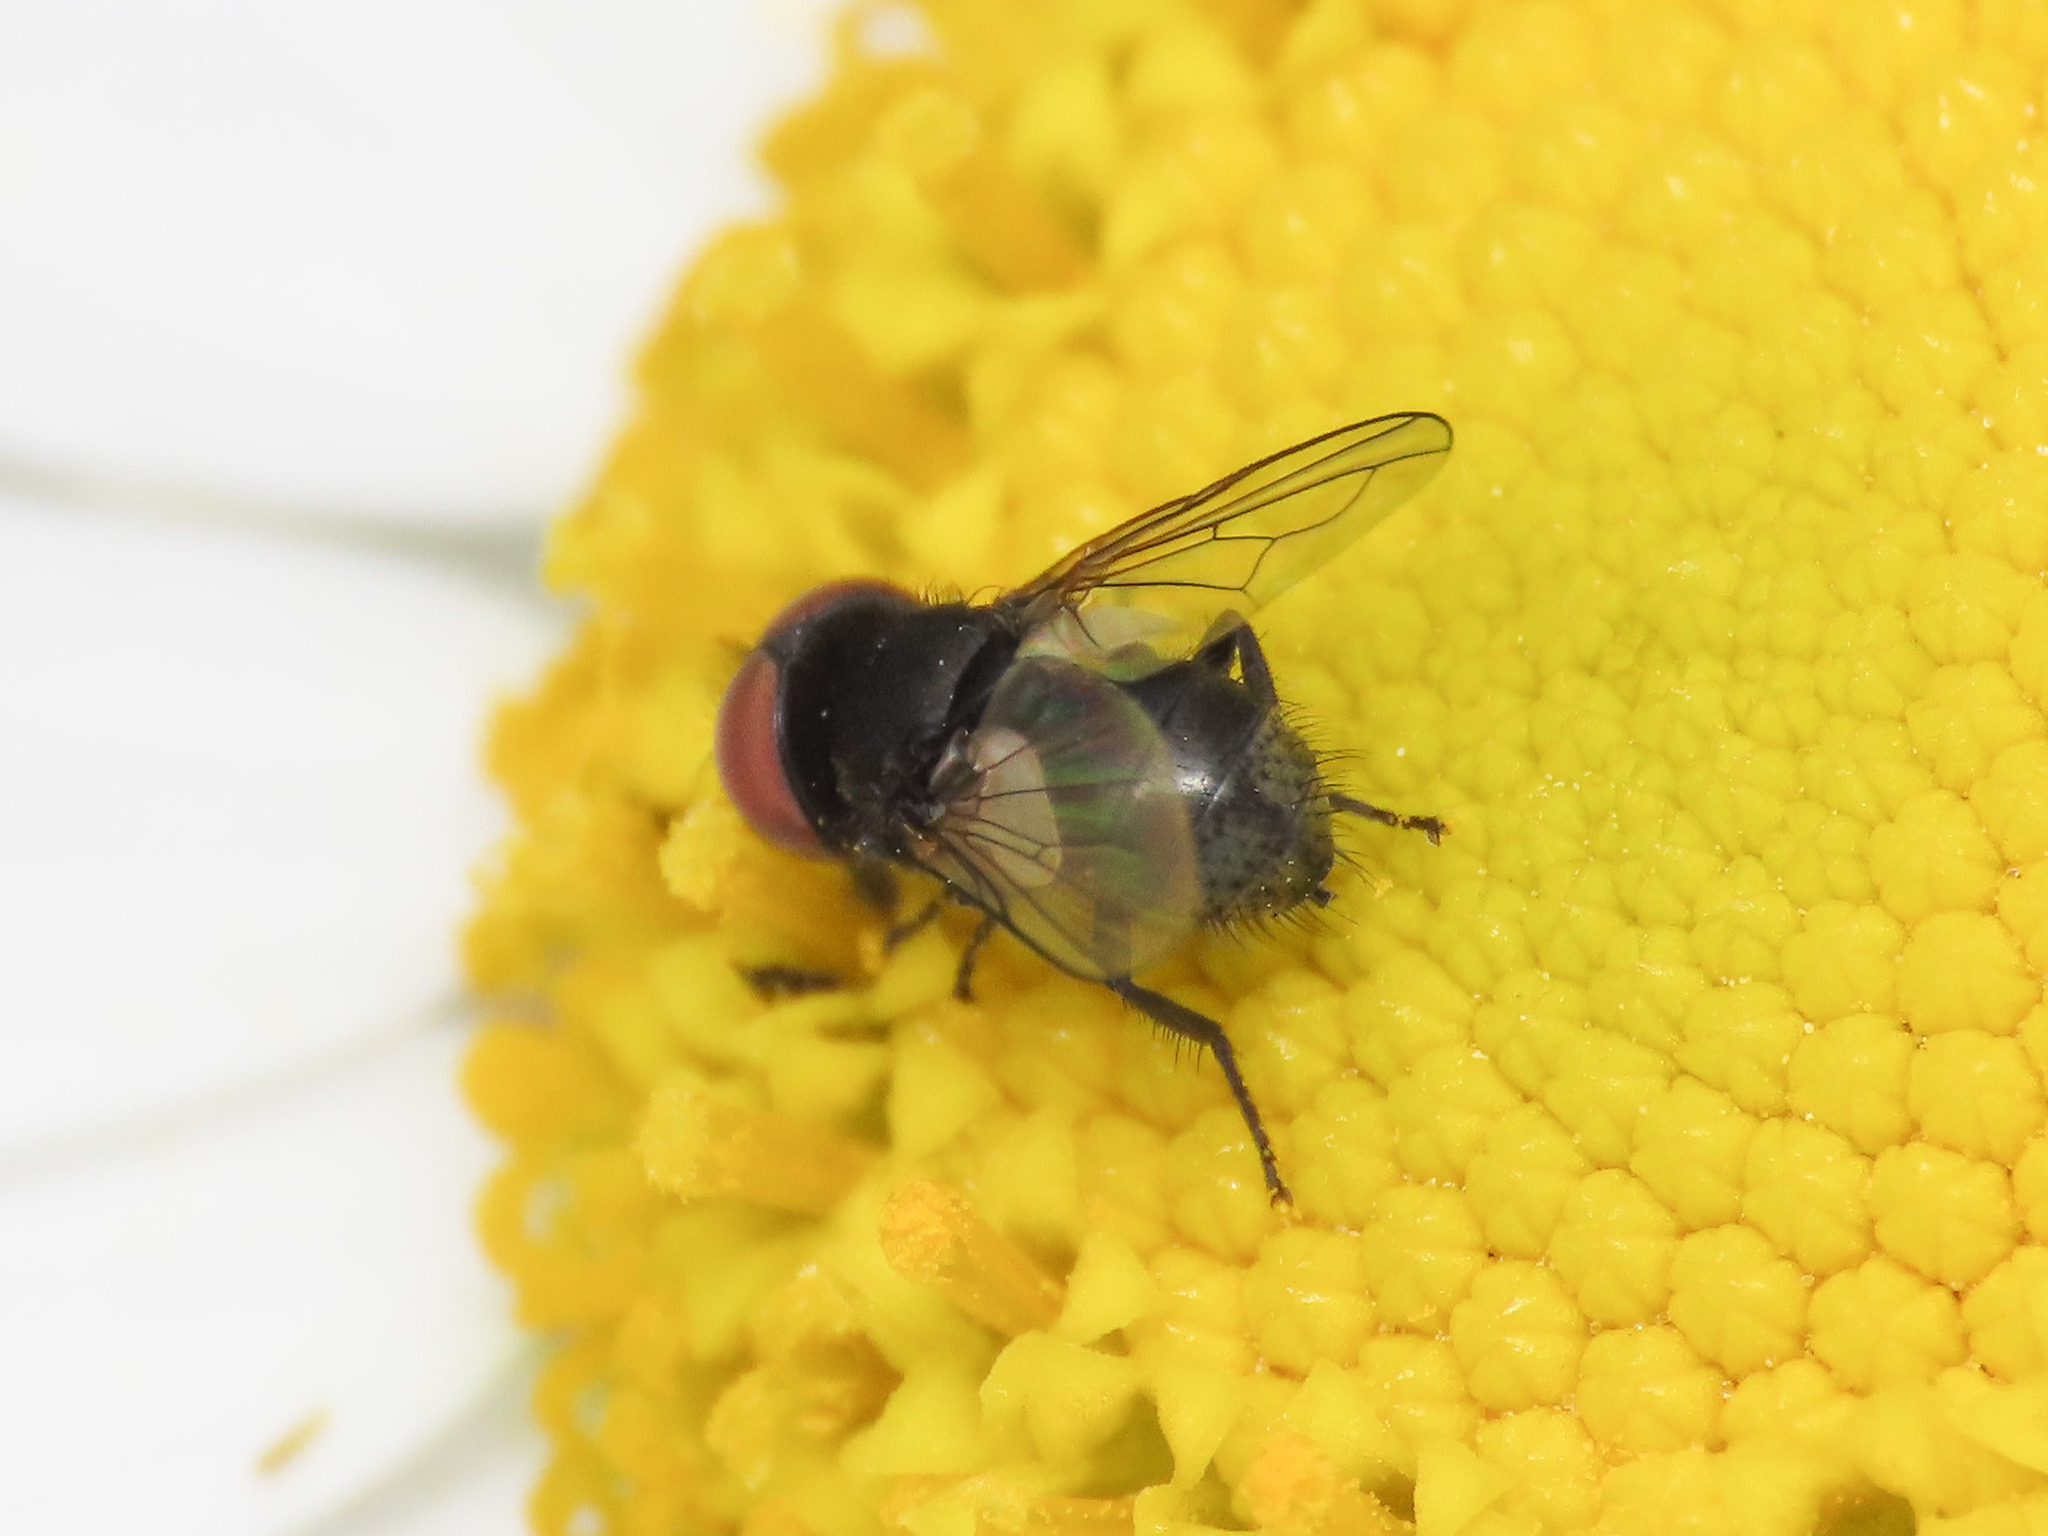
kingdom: Animalia
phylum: Arthropoda
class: Insecta
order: Diptera
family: Tachinidae
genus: Phasia
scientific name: Phasia pusilla
